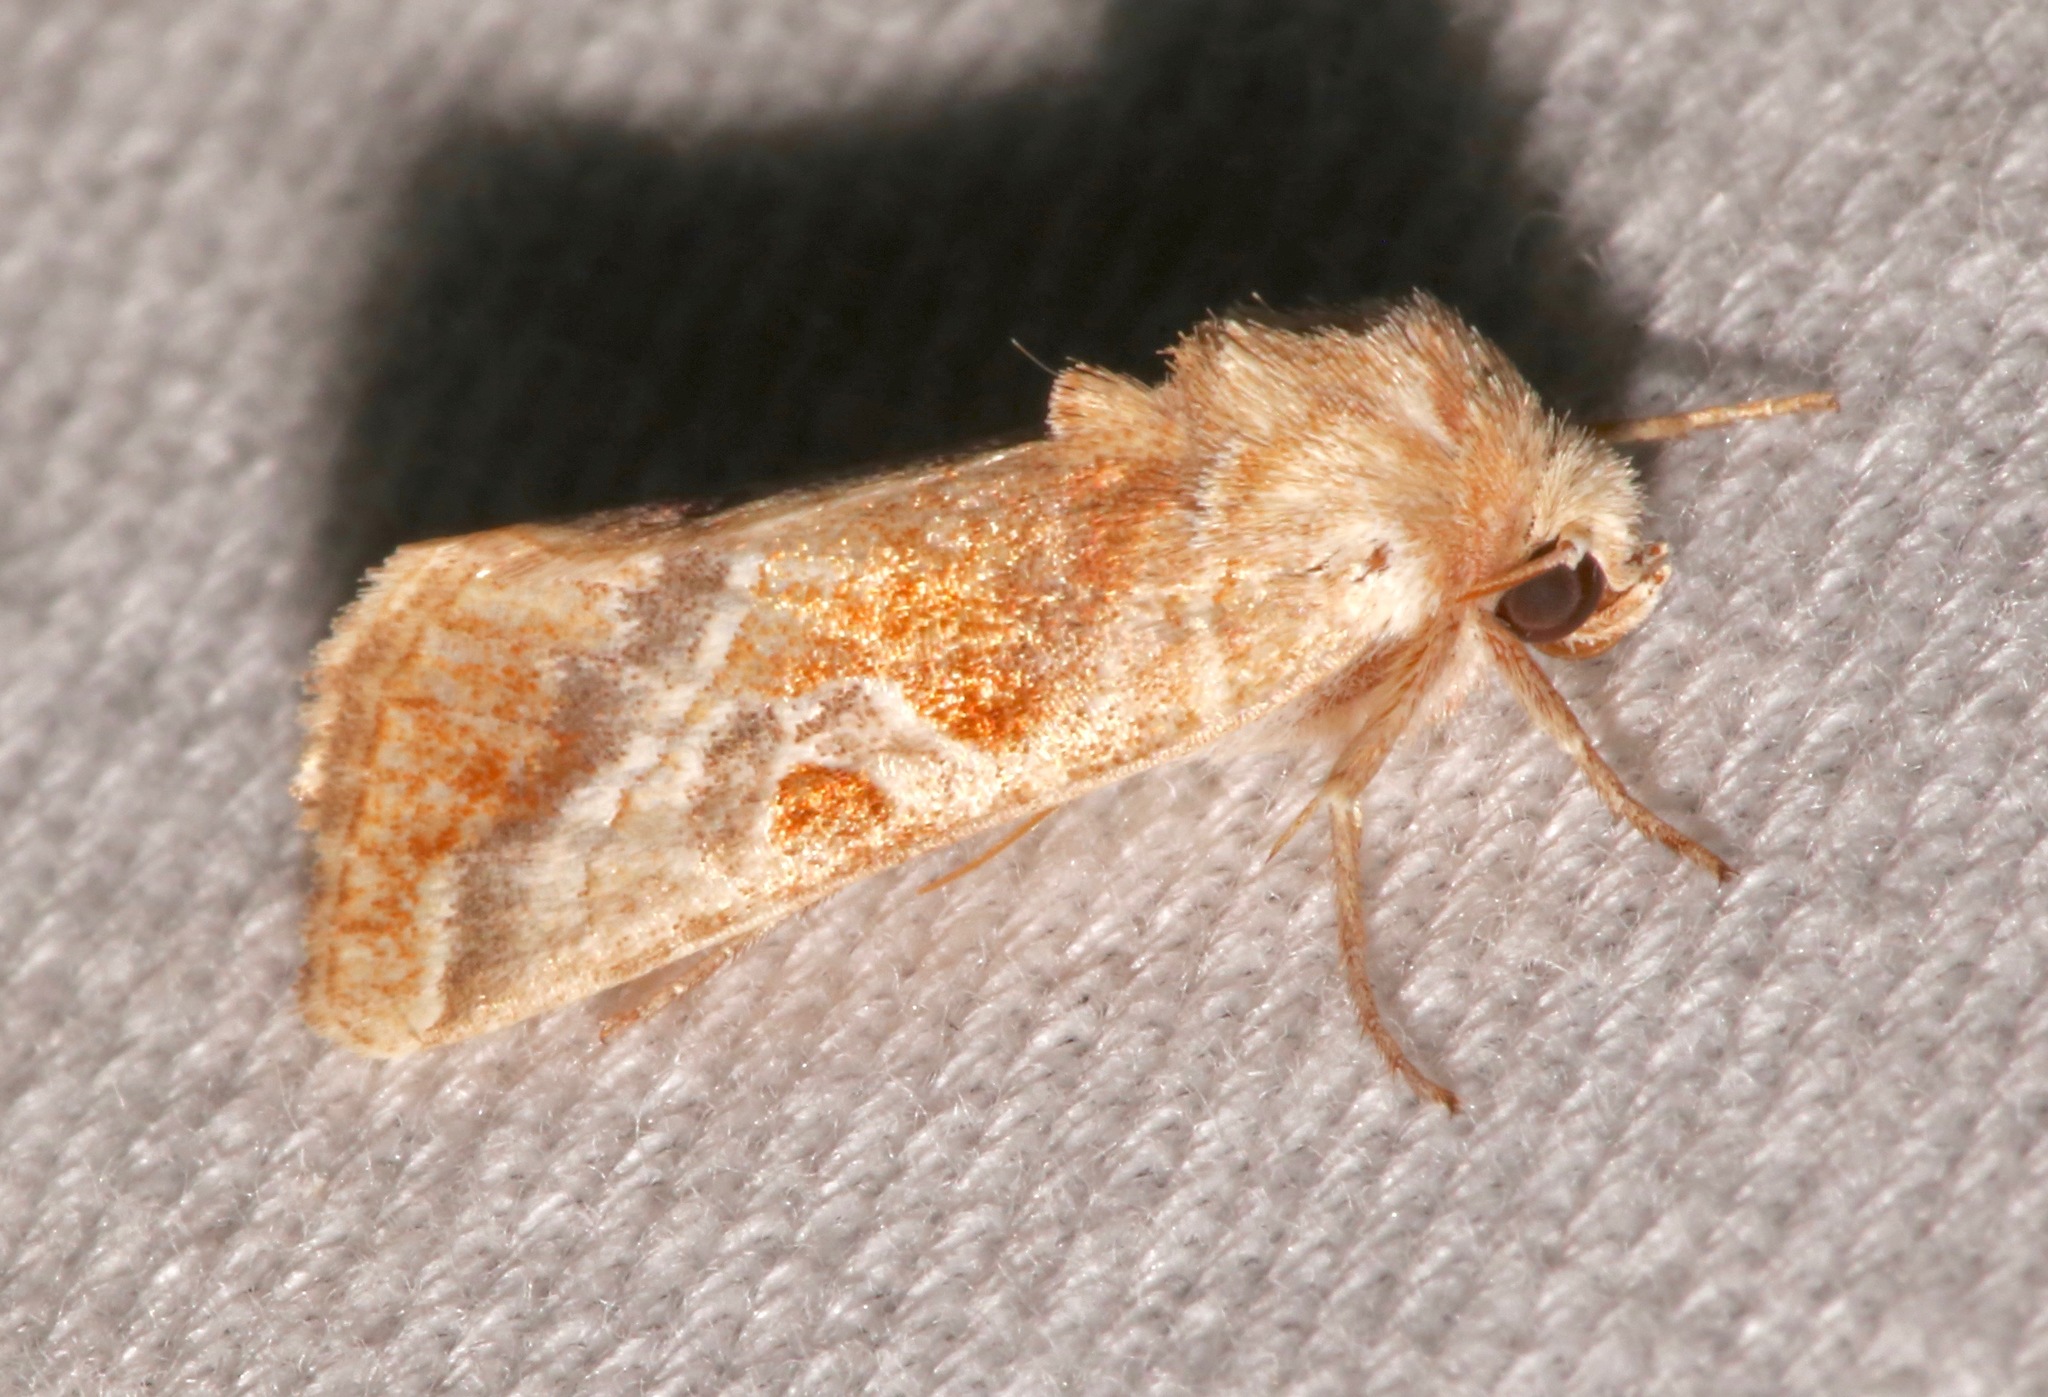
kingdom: Animalia
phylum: Arthropoda
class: Insecta
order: Lepidoptera
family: Noctuidae
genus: Hexorthodes
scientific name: Hexorthodes accurata
